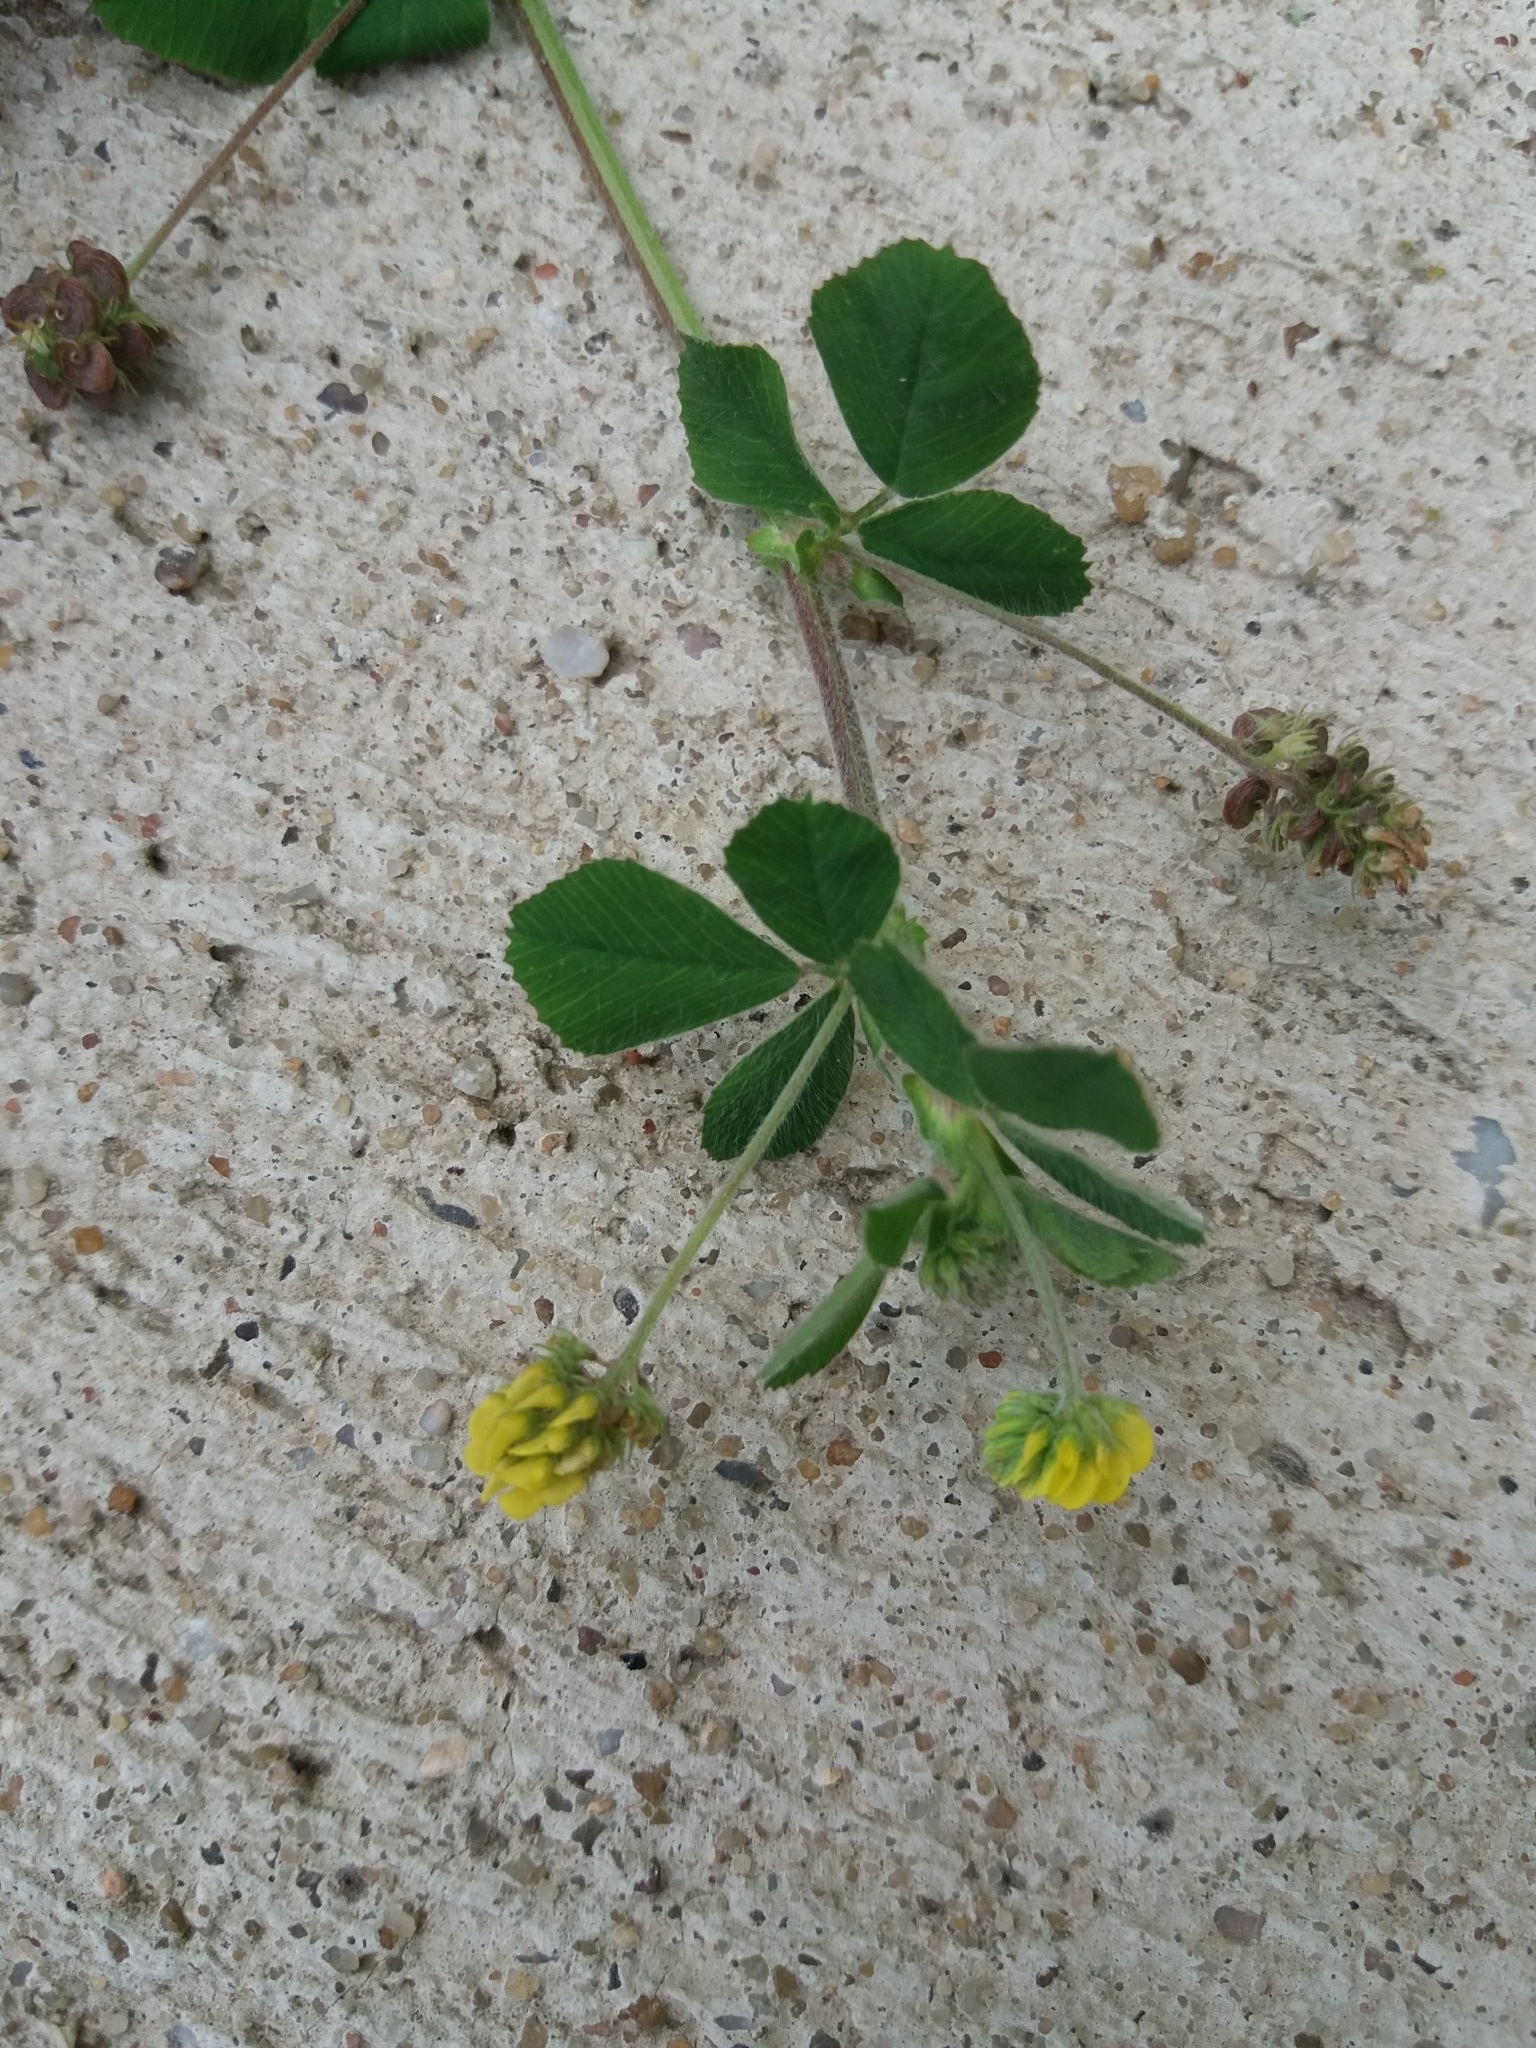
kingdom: Plantae
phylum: Tracheophyta
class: Magnoliopsida
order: Fabales
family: Fabaceae
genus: Medicago
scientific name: Medicago lupulina
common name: Black medick
